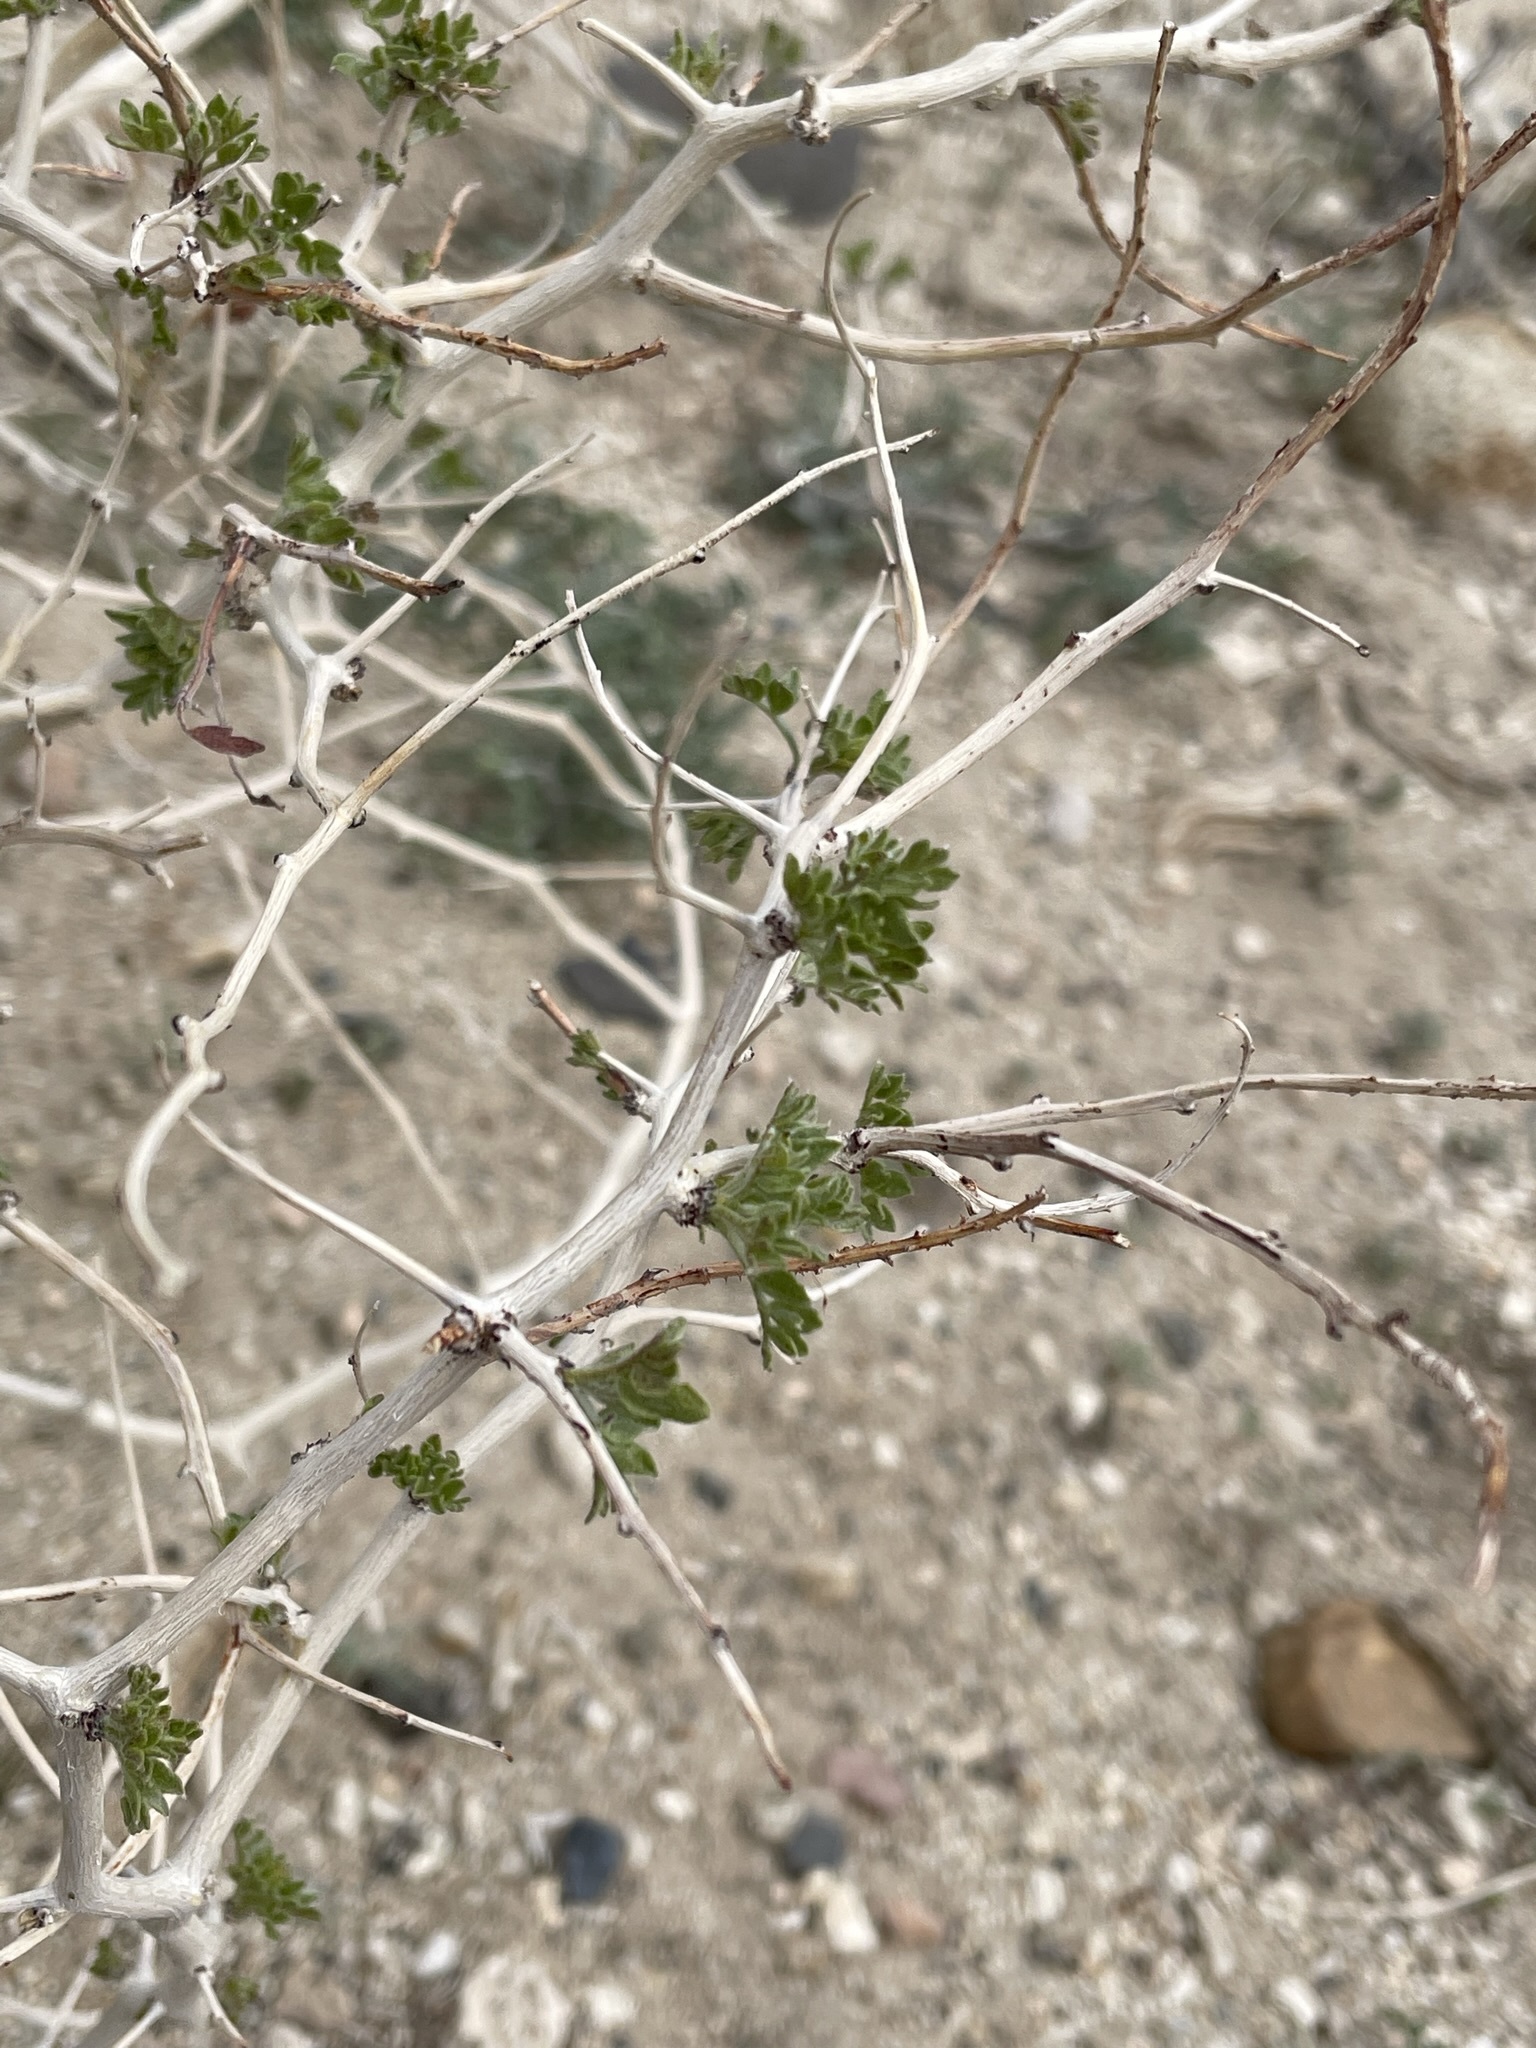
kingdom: Plantae
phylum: Tracheophyta
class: Magnoliopsida
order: Fabales
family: Fabaceae
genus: Psorothamnus
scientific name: Psorothamnus arborescens
